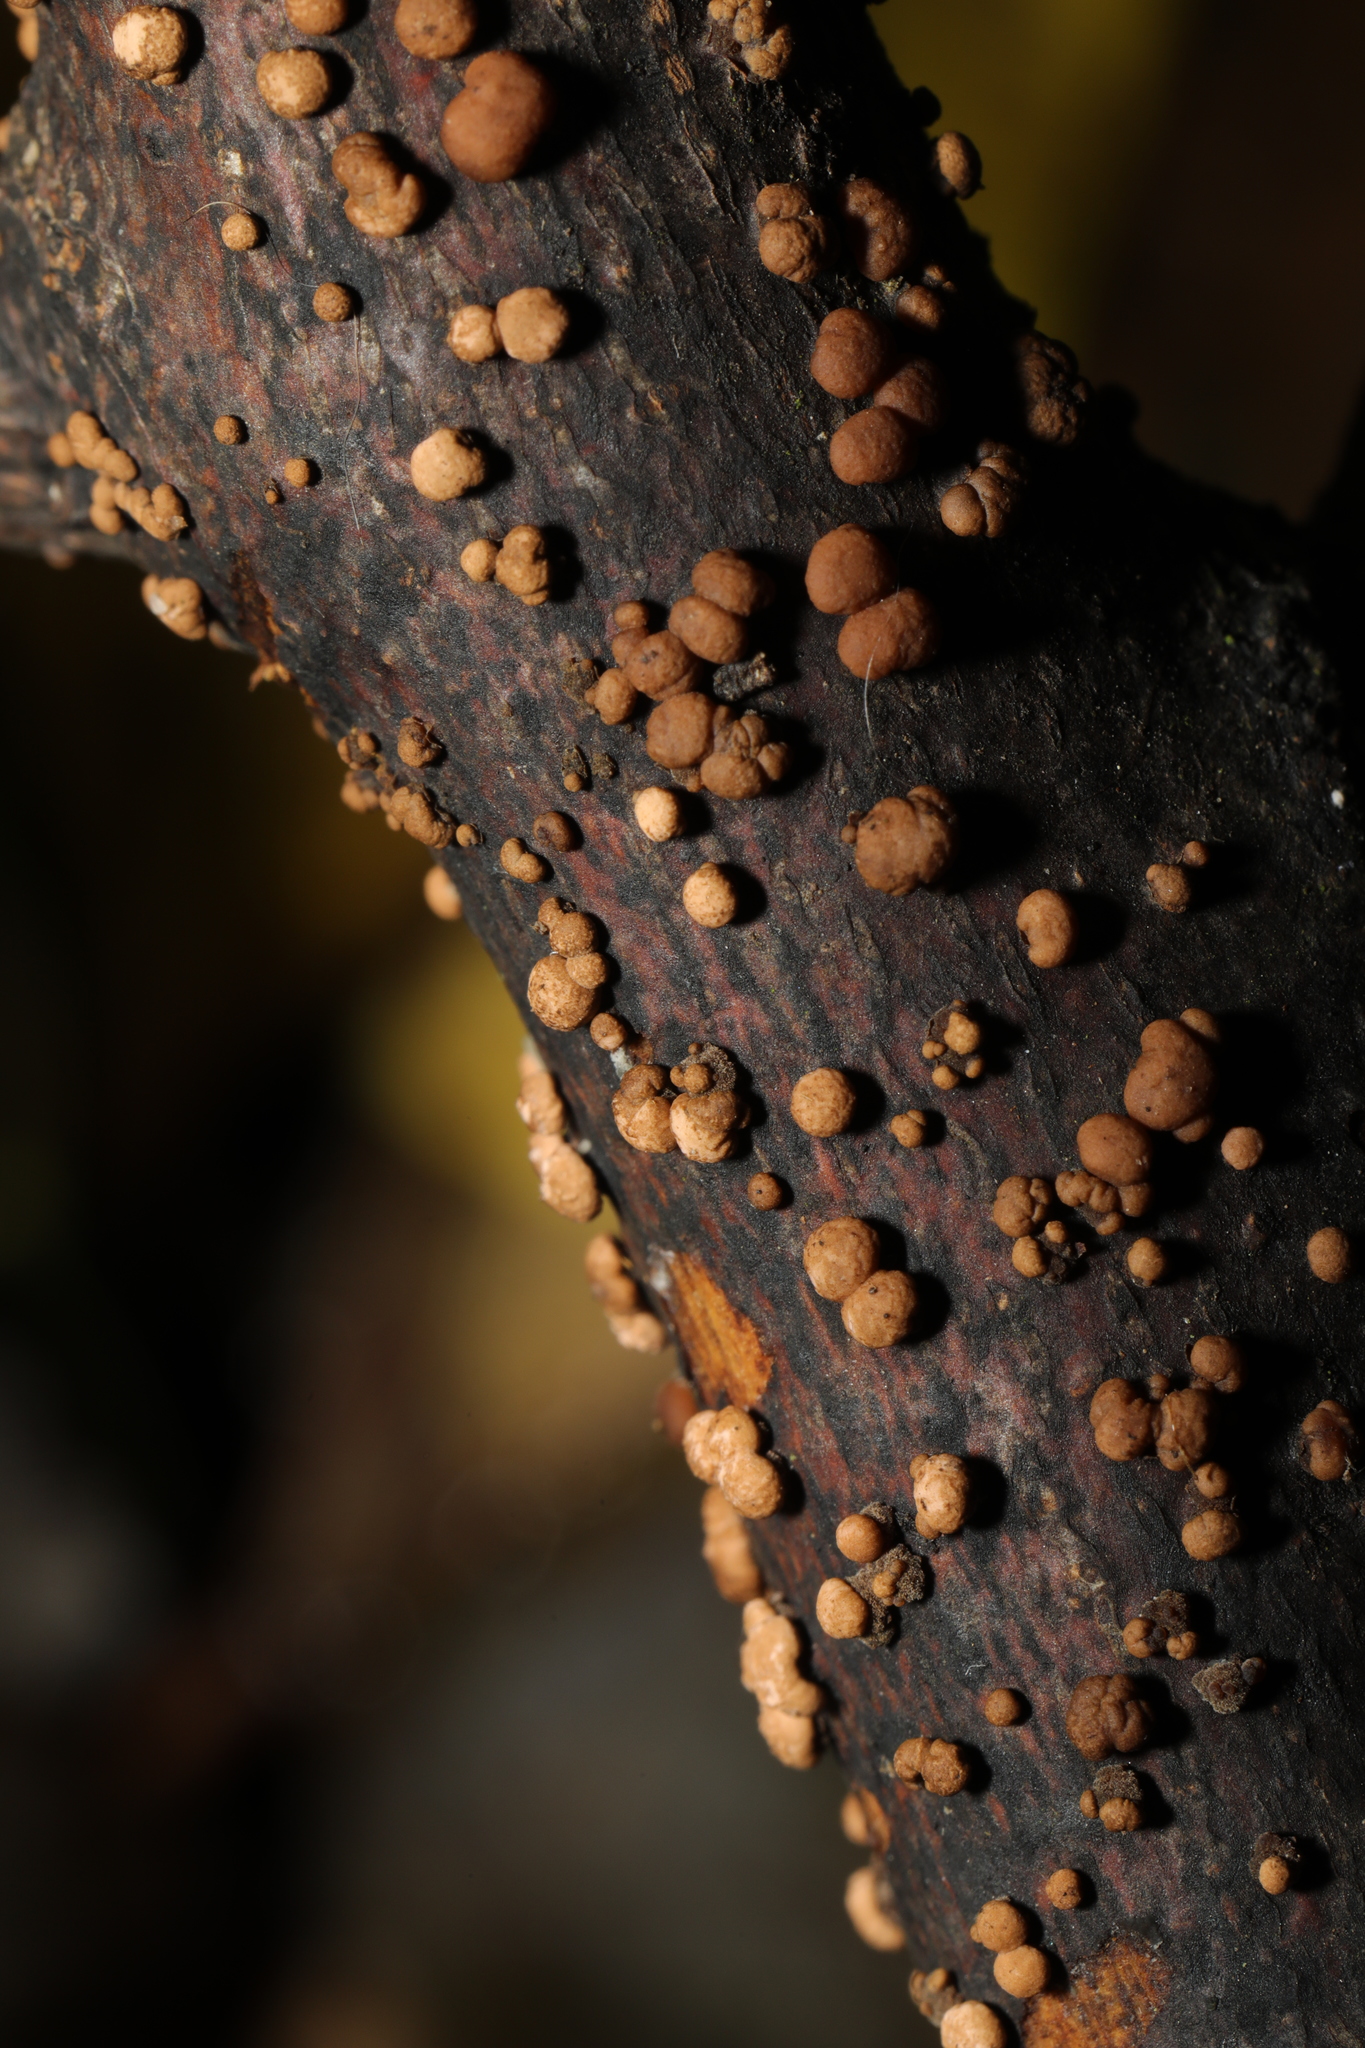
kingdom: Fungi
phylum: Ascomycota
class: Sordariomycetes
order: Hypocreales
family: Nectriaceae
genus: Nectria
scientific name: Nectria cinnabarina
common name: Coral spot
